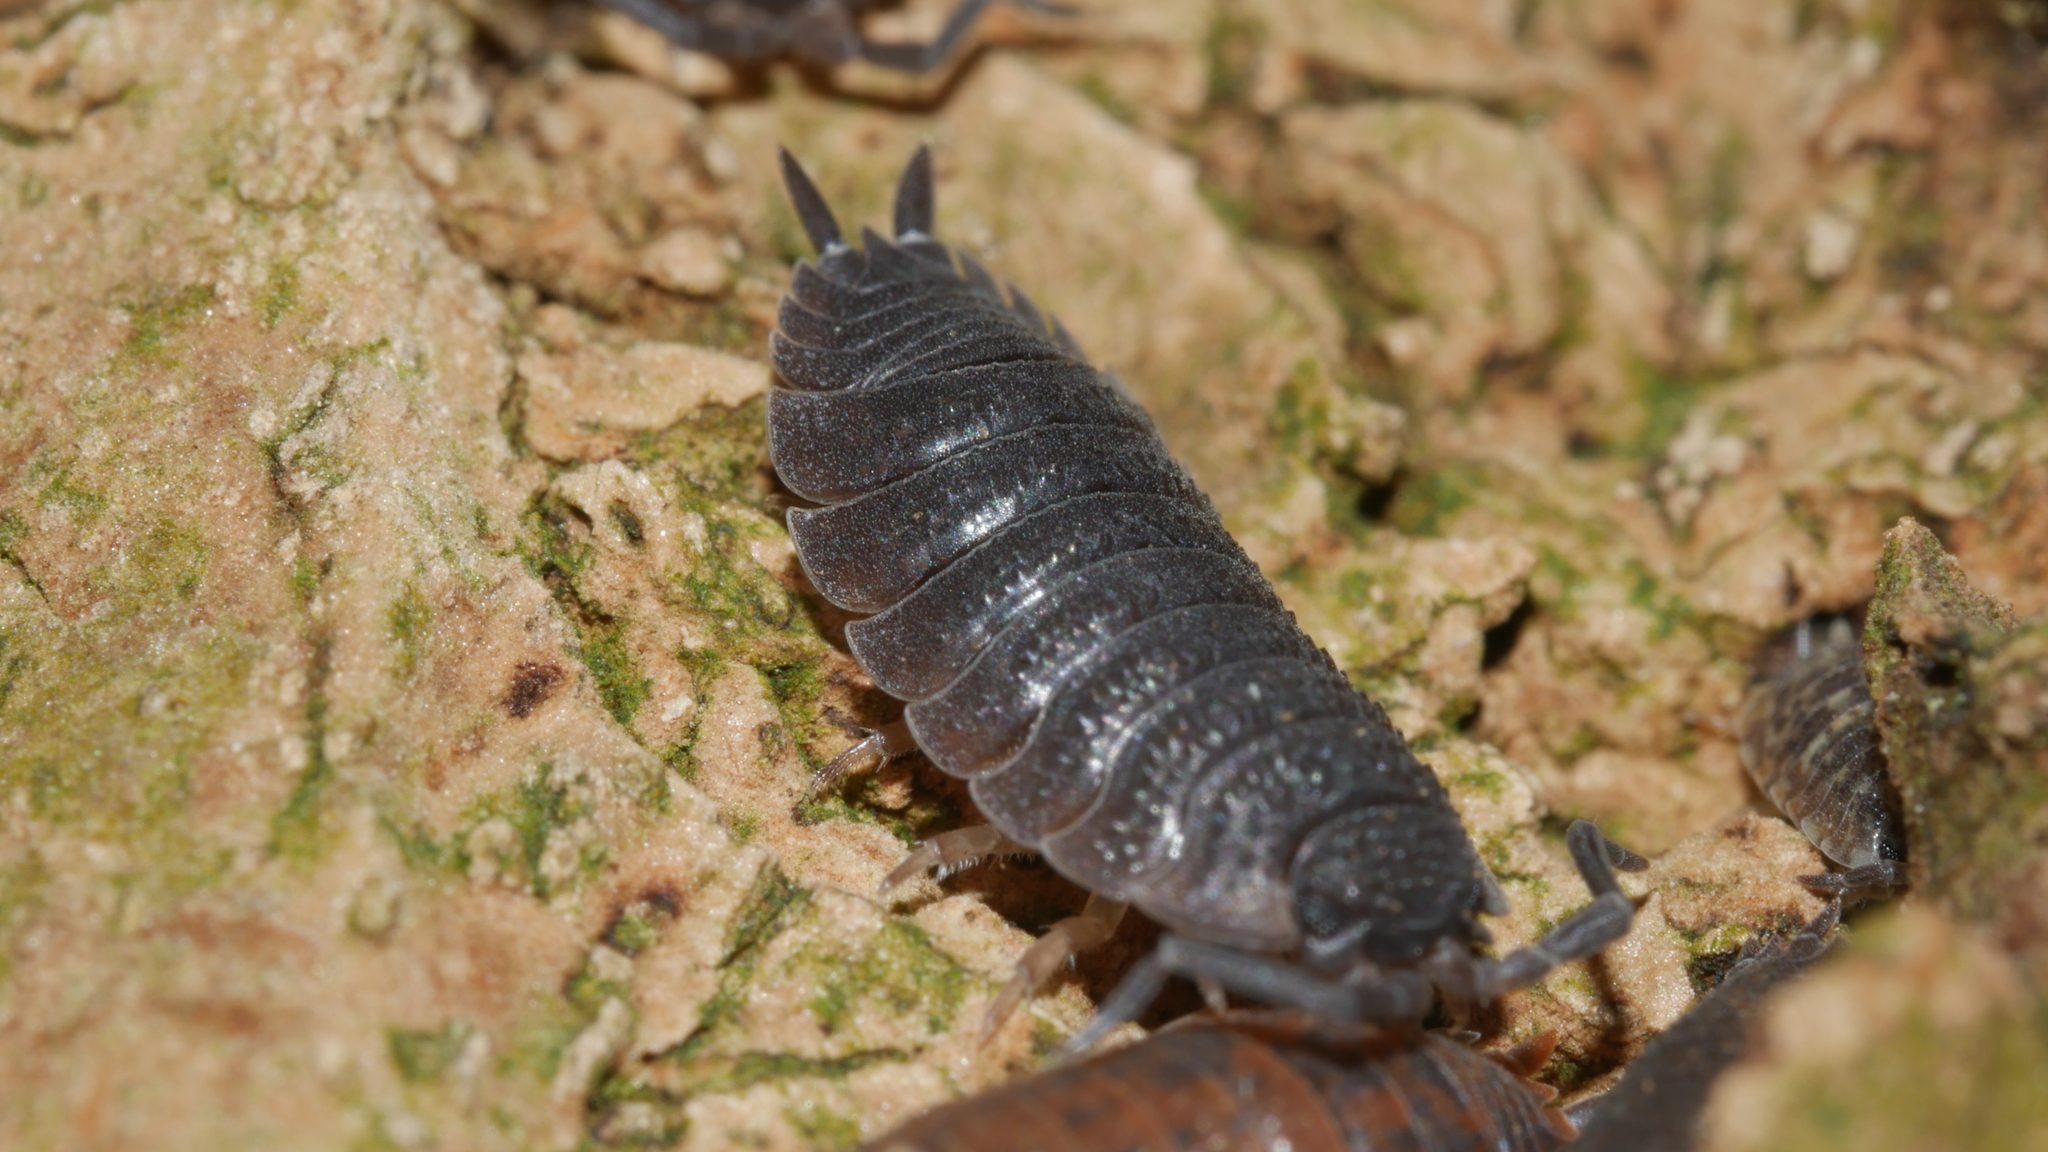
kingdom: Animalia
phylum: Arthropoda
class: Malacostraca
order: Isopoda
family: Porcellionidae
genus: Porcellio
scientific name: Porcellio scaber
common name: Common rough woodlouse
